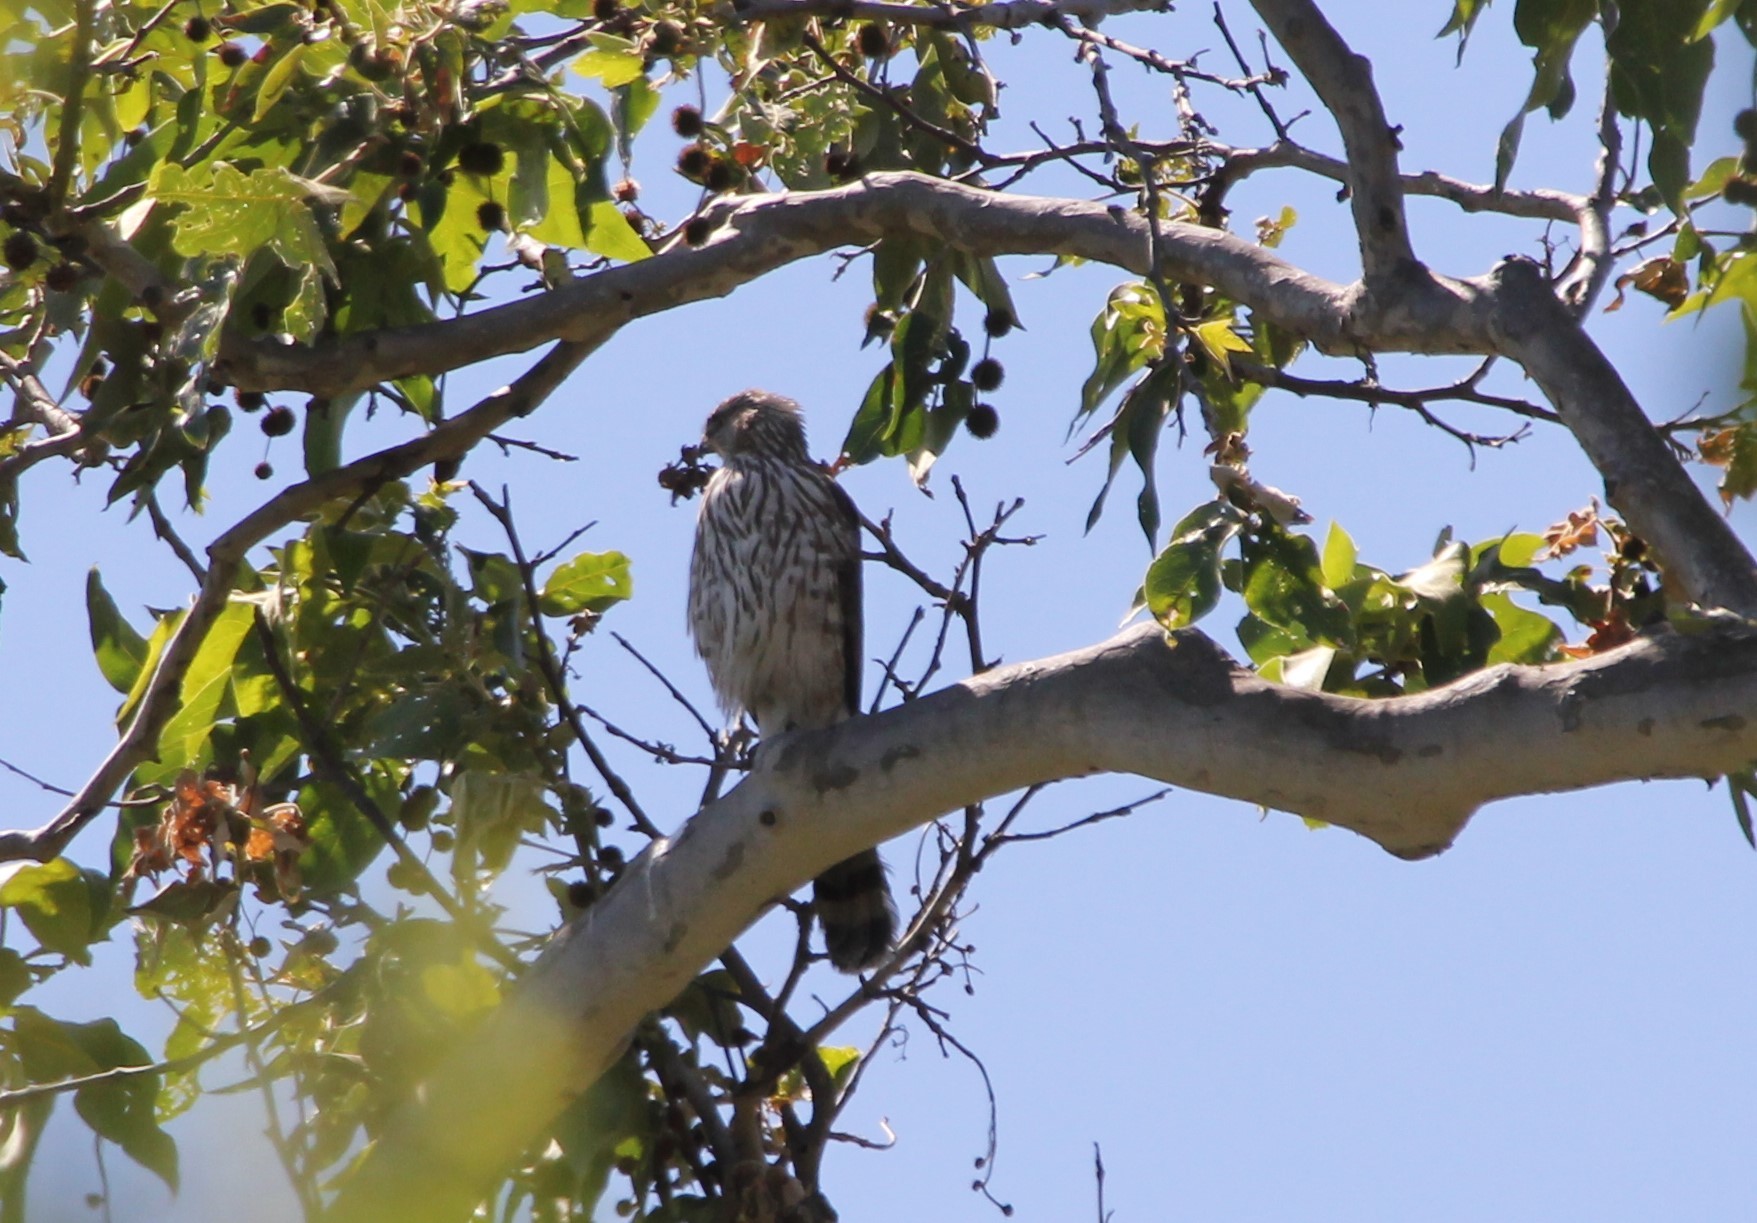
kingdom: Animalia
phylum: Chordata
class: Aves
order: Accipitriformes
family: Accipitridae
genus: Accipiter
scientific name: Accipiter cooperii
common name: Cooper's hawk
